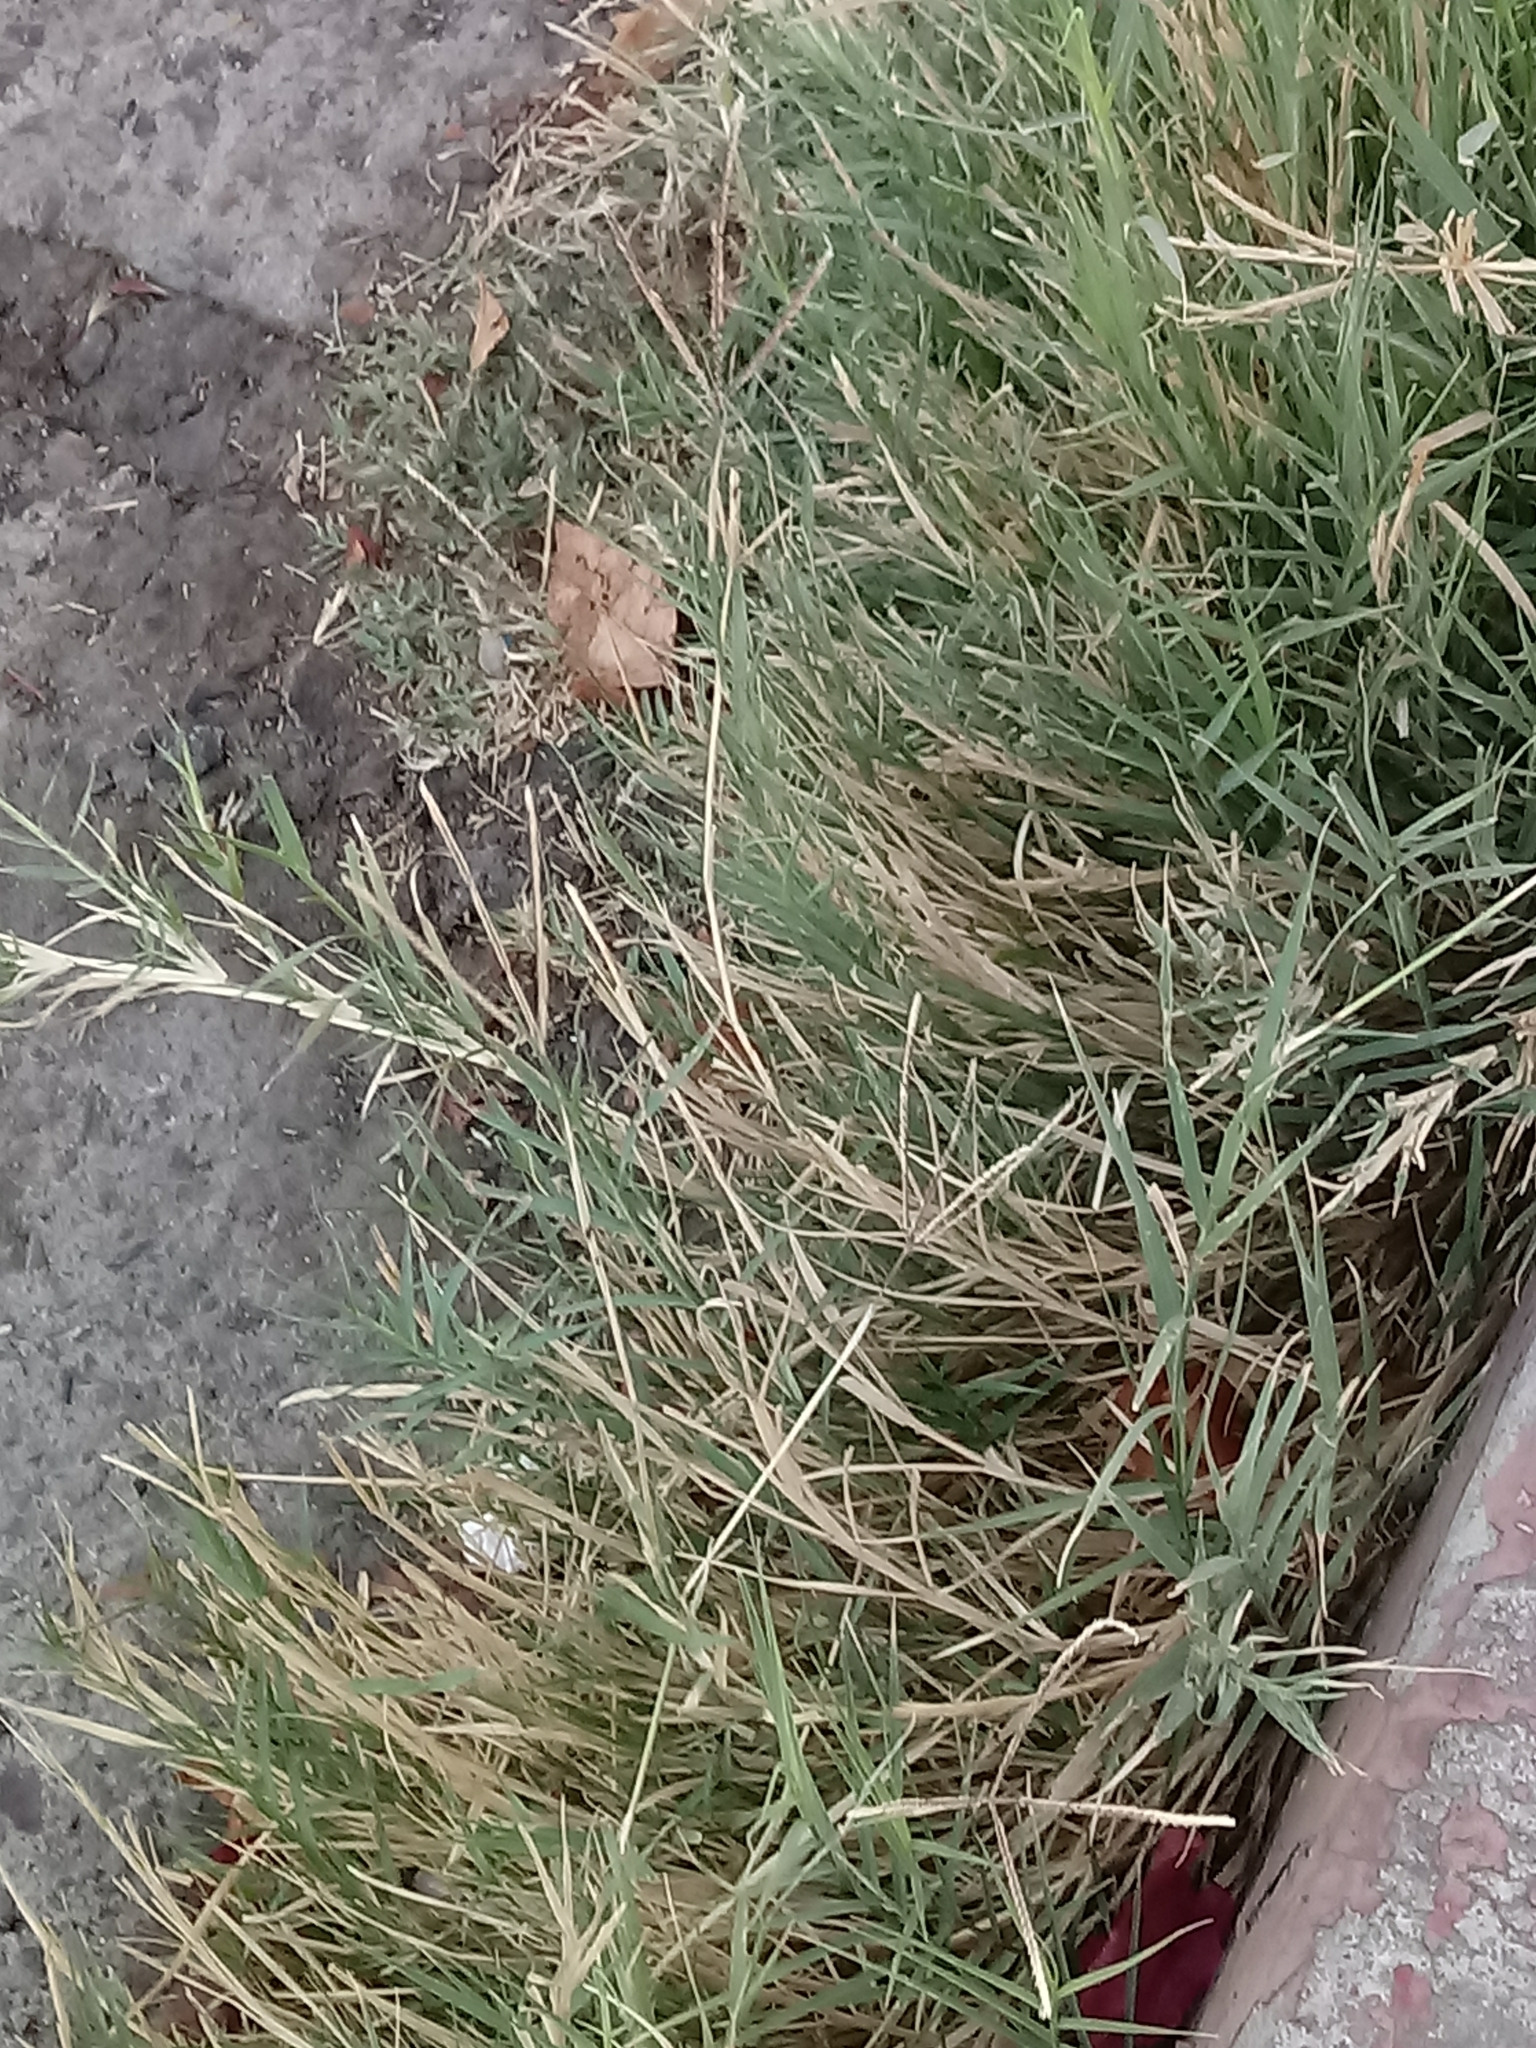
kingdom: Plantae
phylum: Tracheophyta
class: Liliopsida
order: Poales
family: Poaceae
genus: Cynodon
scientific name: Cynodon dactylon
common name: Bermuda grass
